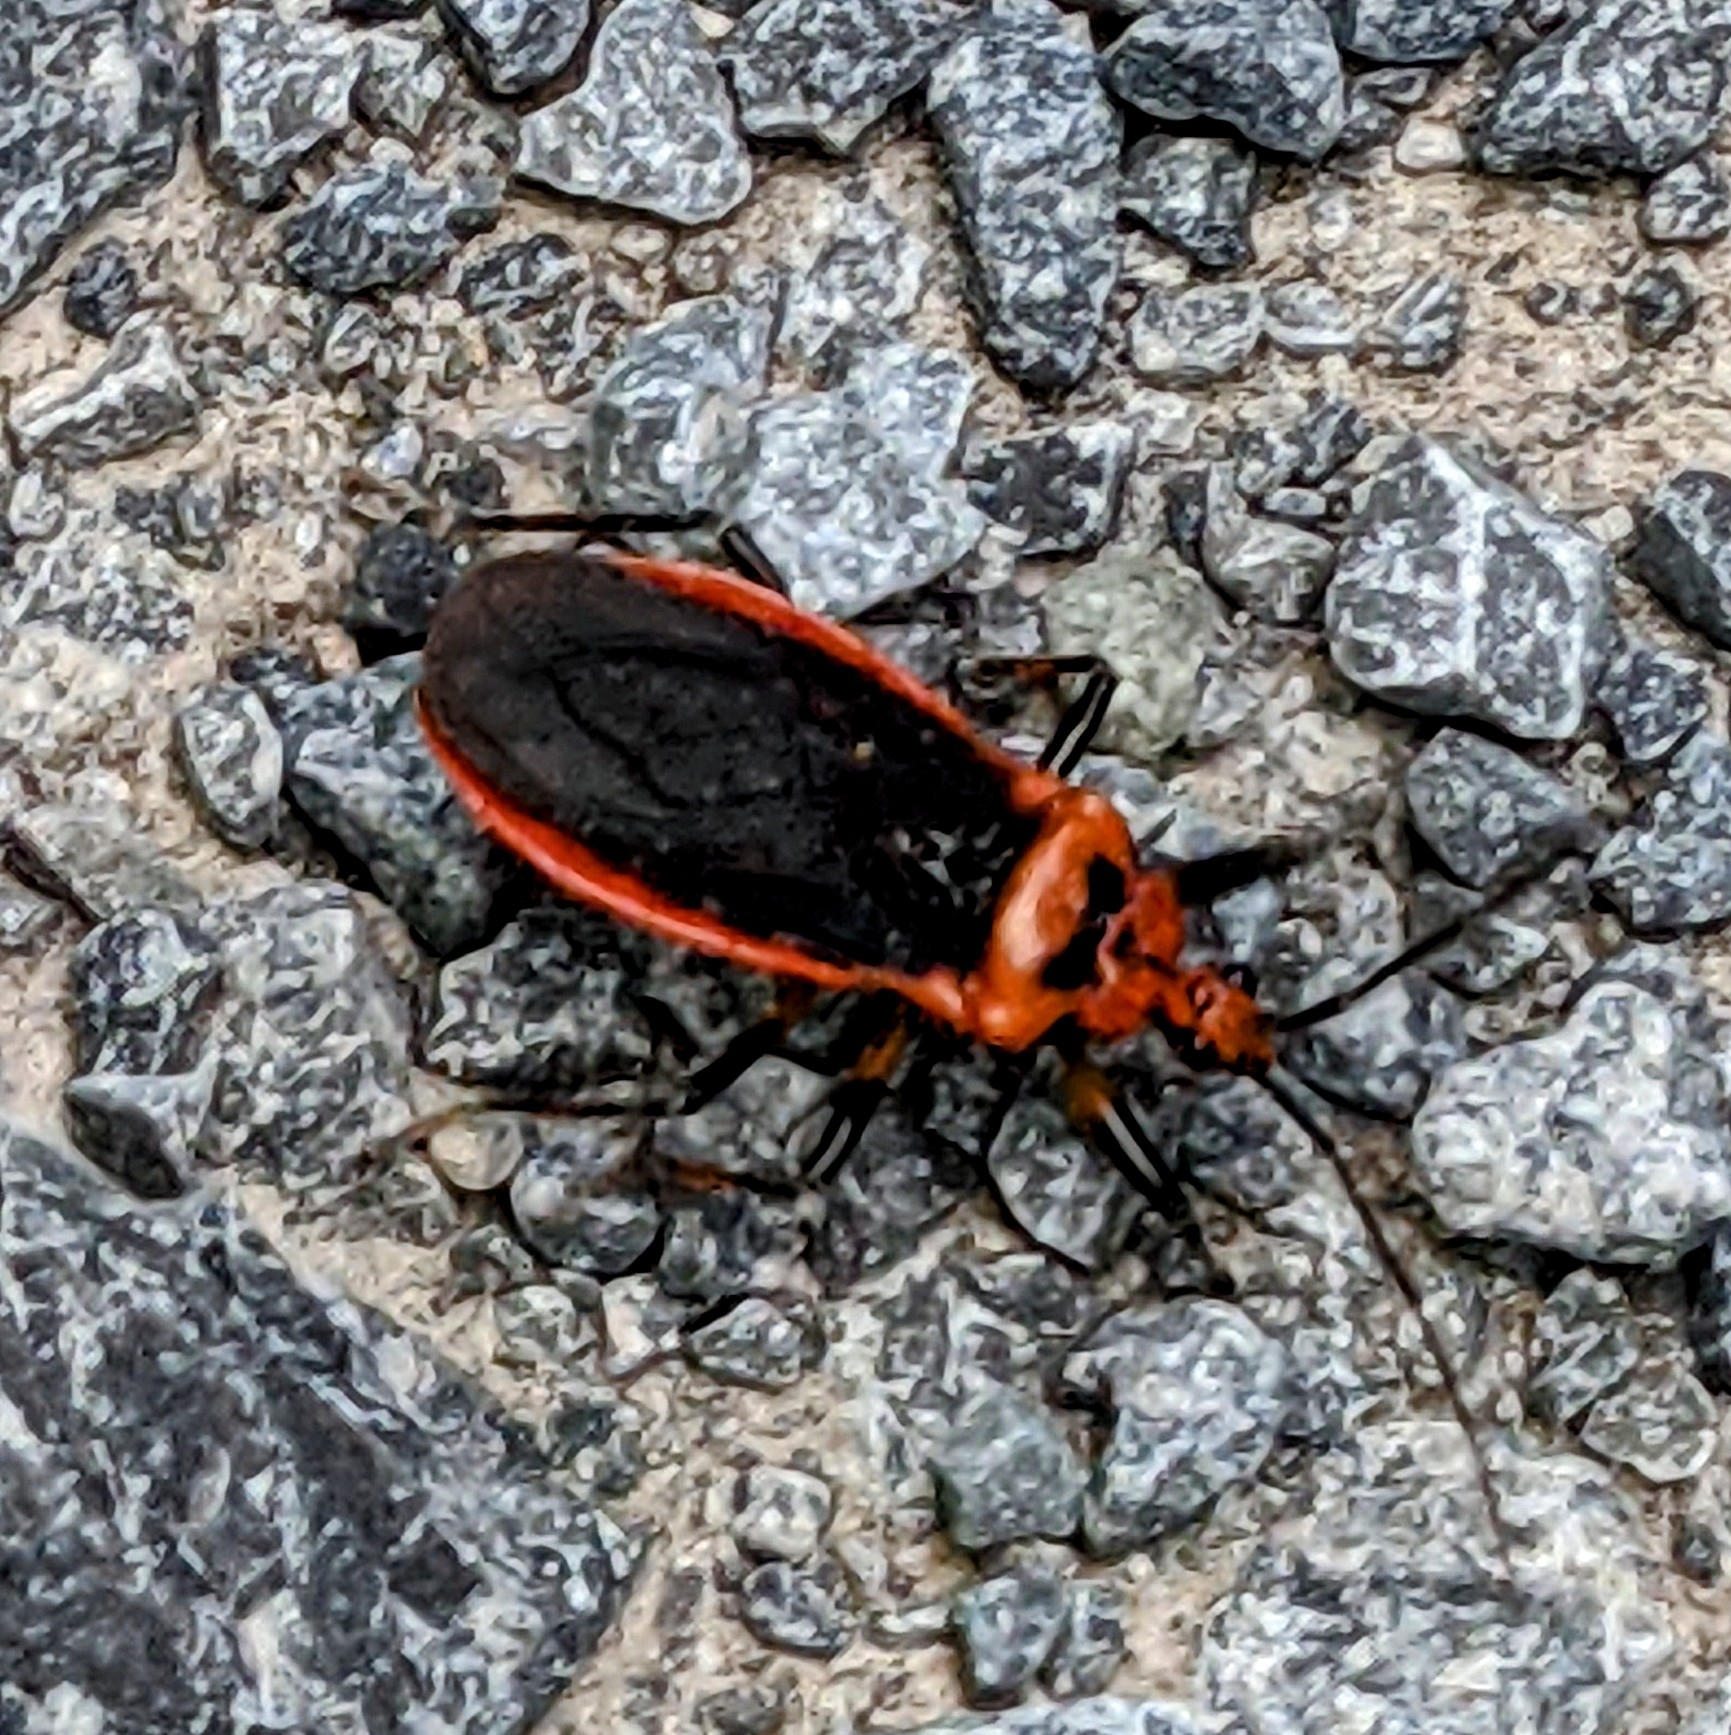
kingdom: Animalia
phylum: Arthropoda
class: Insecta
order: Hemiptera
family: Reduviidae
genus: Rhiginia
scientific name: Rhiginia cruciata
